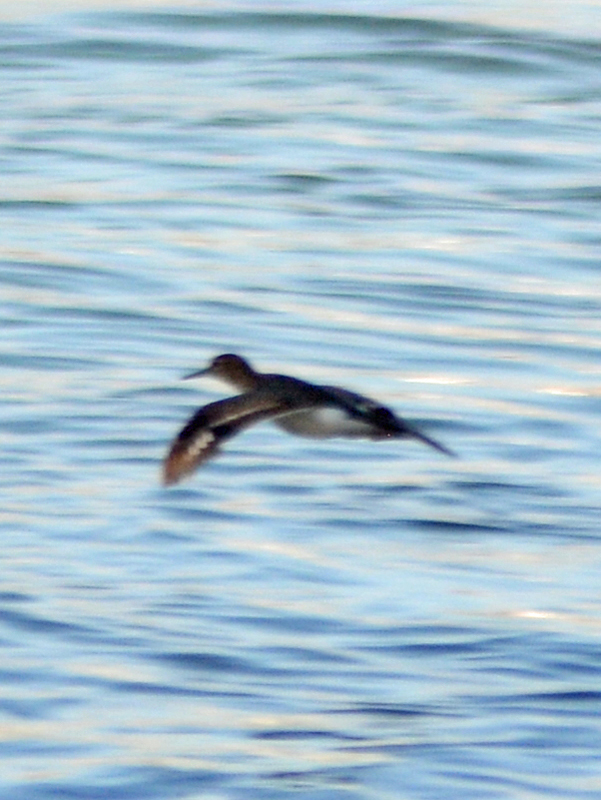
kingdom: Animalia
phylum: Chordata
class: Aves
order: Charadriiformes
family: Scolopacidae
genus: Actitis
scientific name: Actitis macularius
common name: Spotted sandpiper
